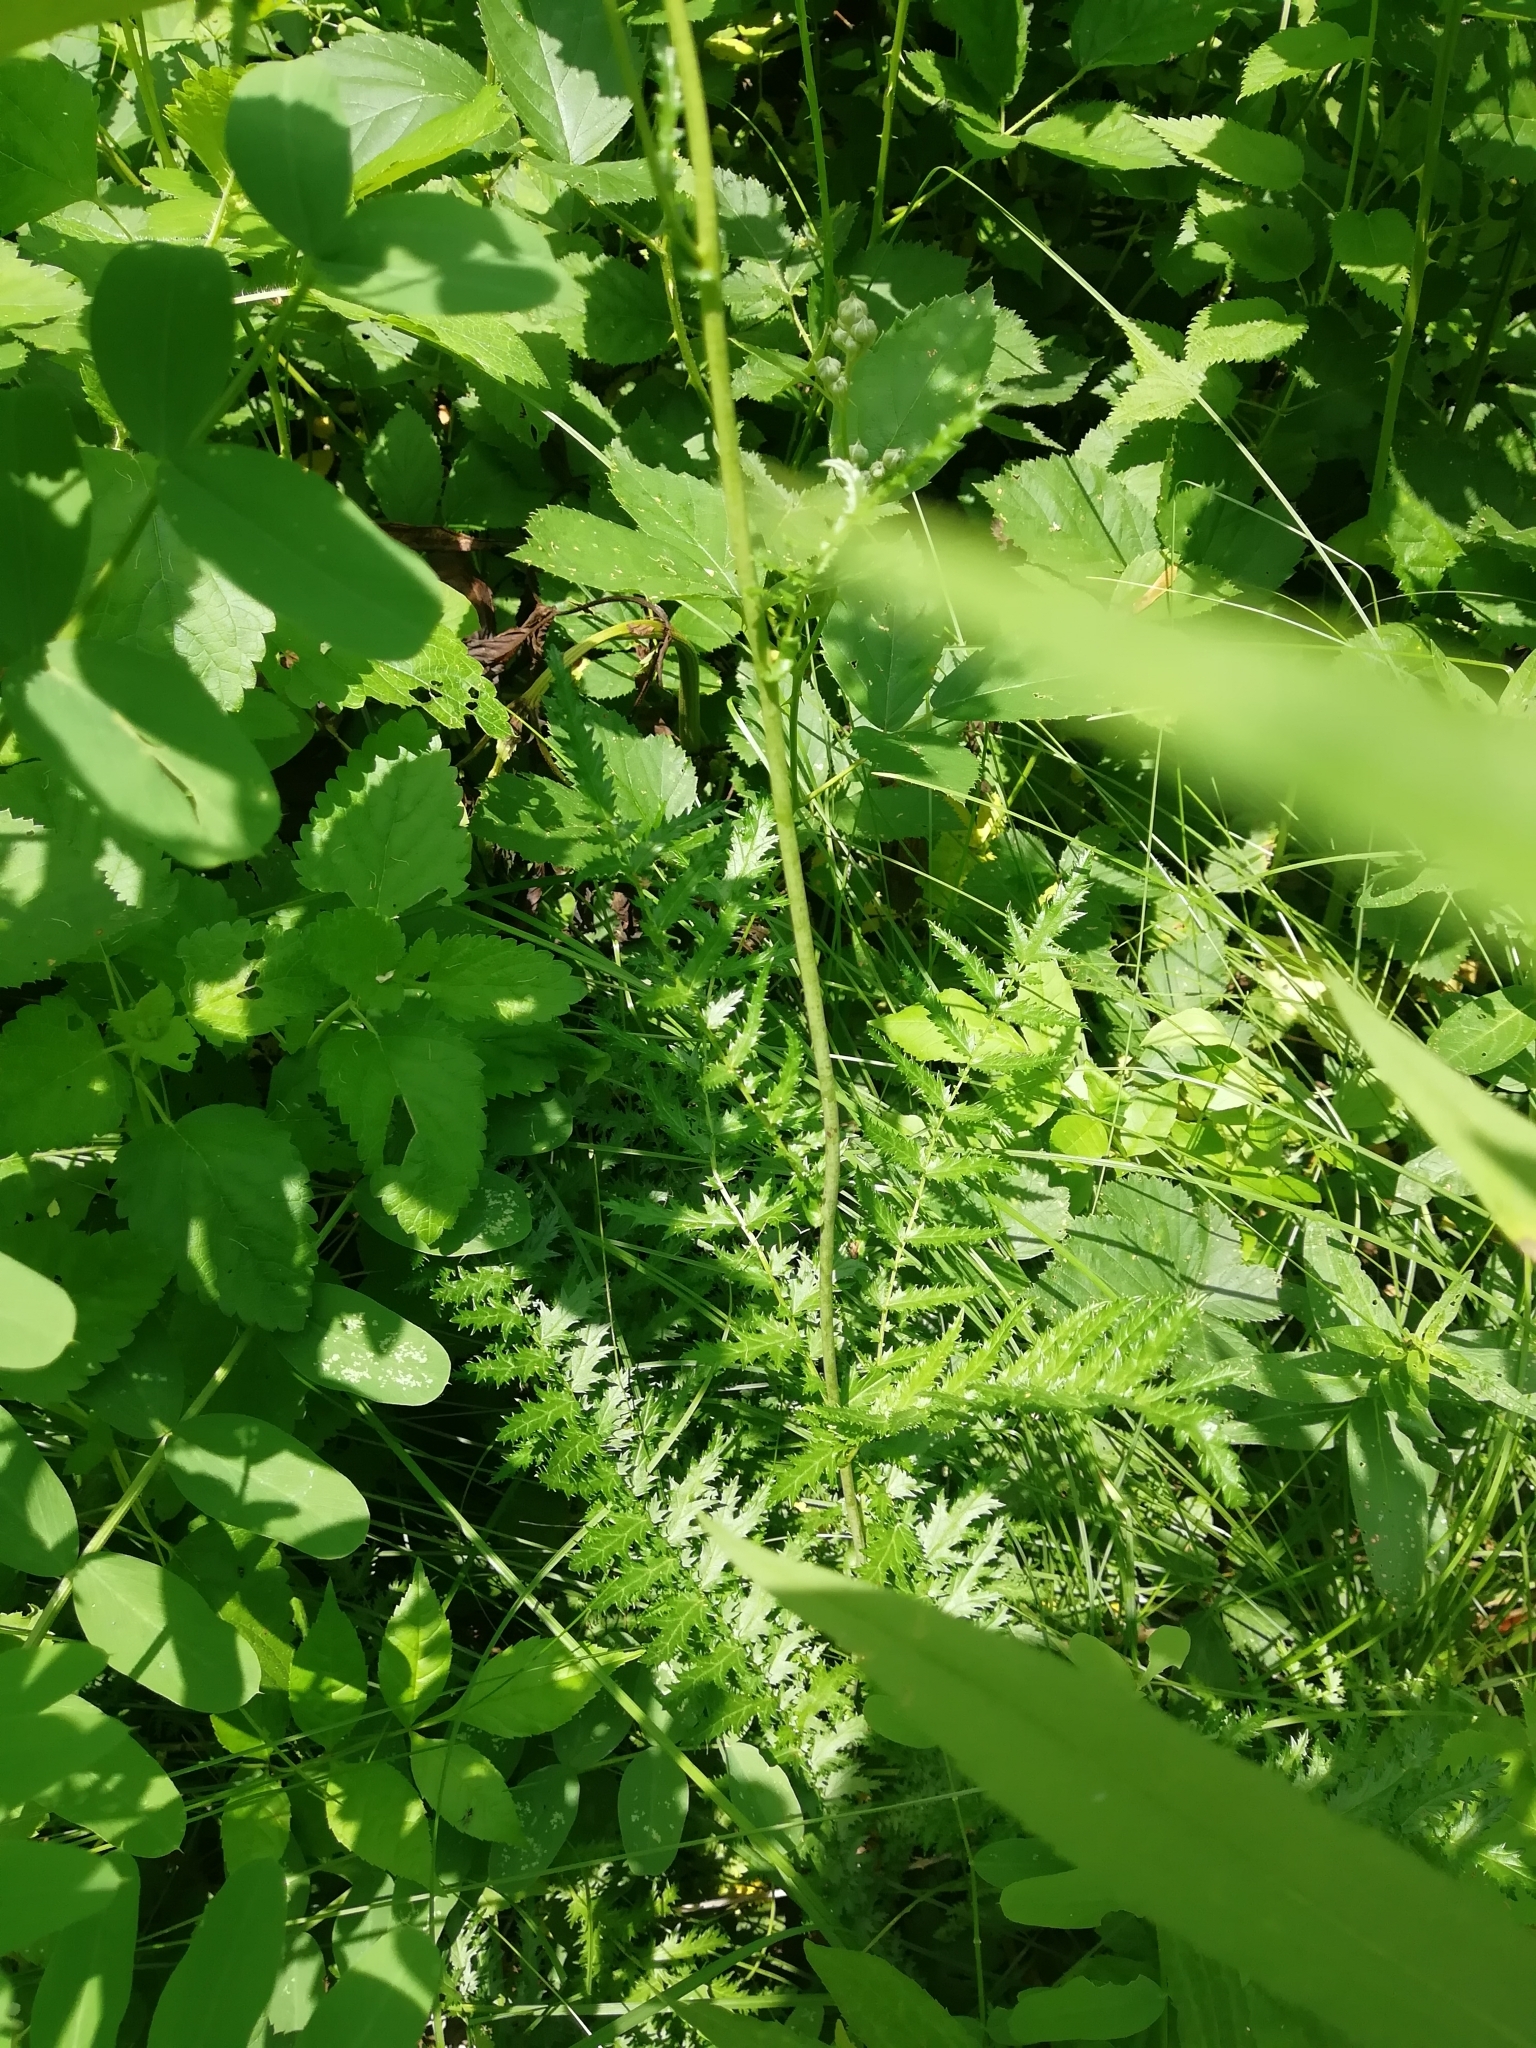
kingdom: Plantae
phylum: Tracheophyta
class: Magnoliopsida
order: Rosales
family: Rosaceae
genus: Filipendula
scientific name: Filipendula vulgaris
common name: Dropwort
